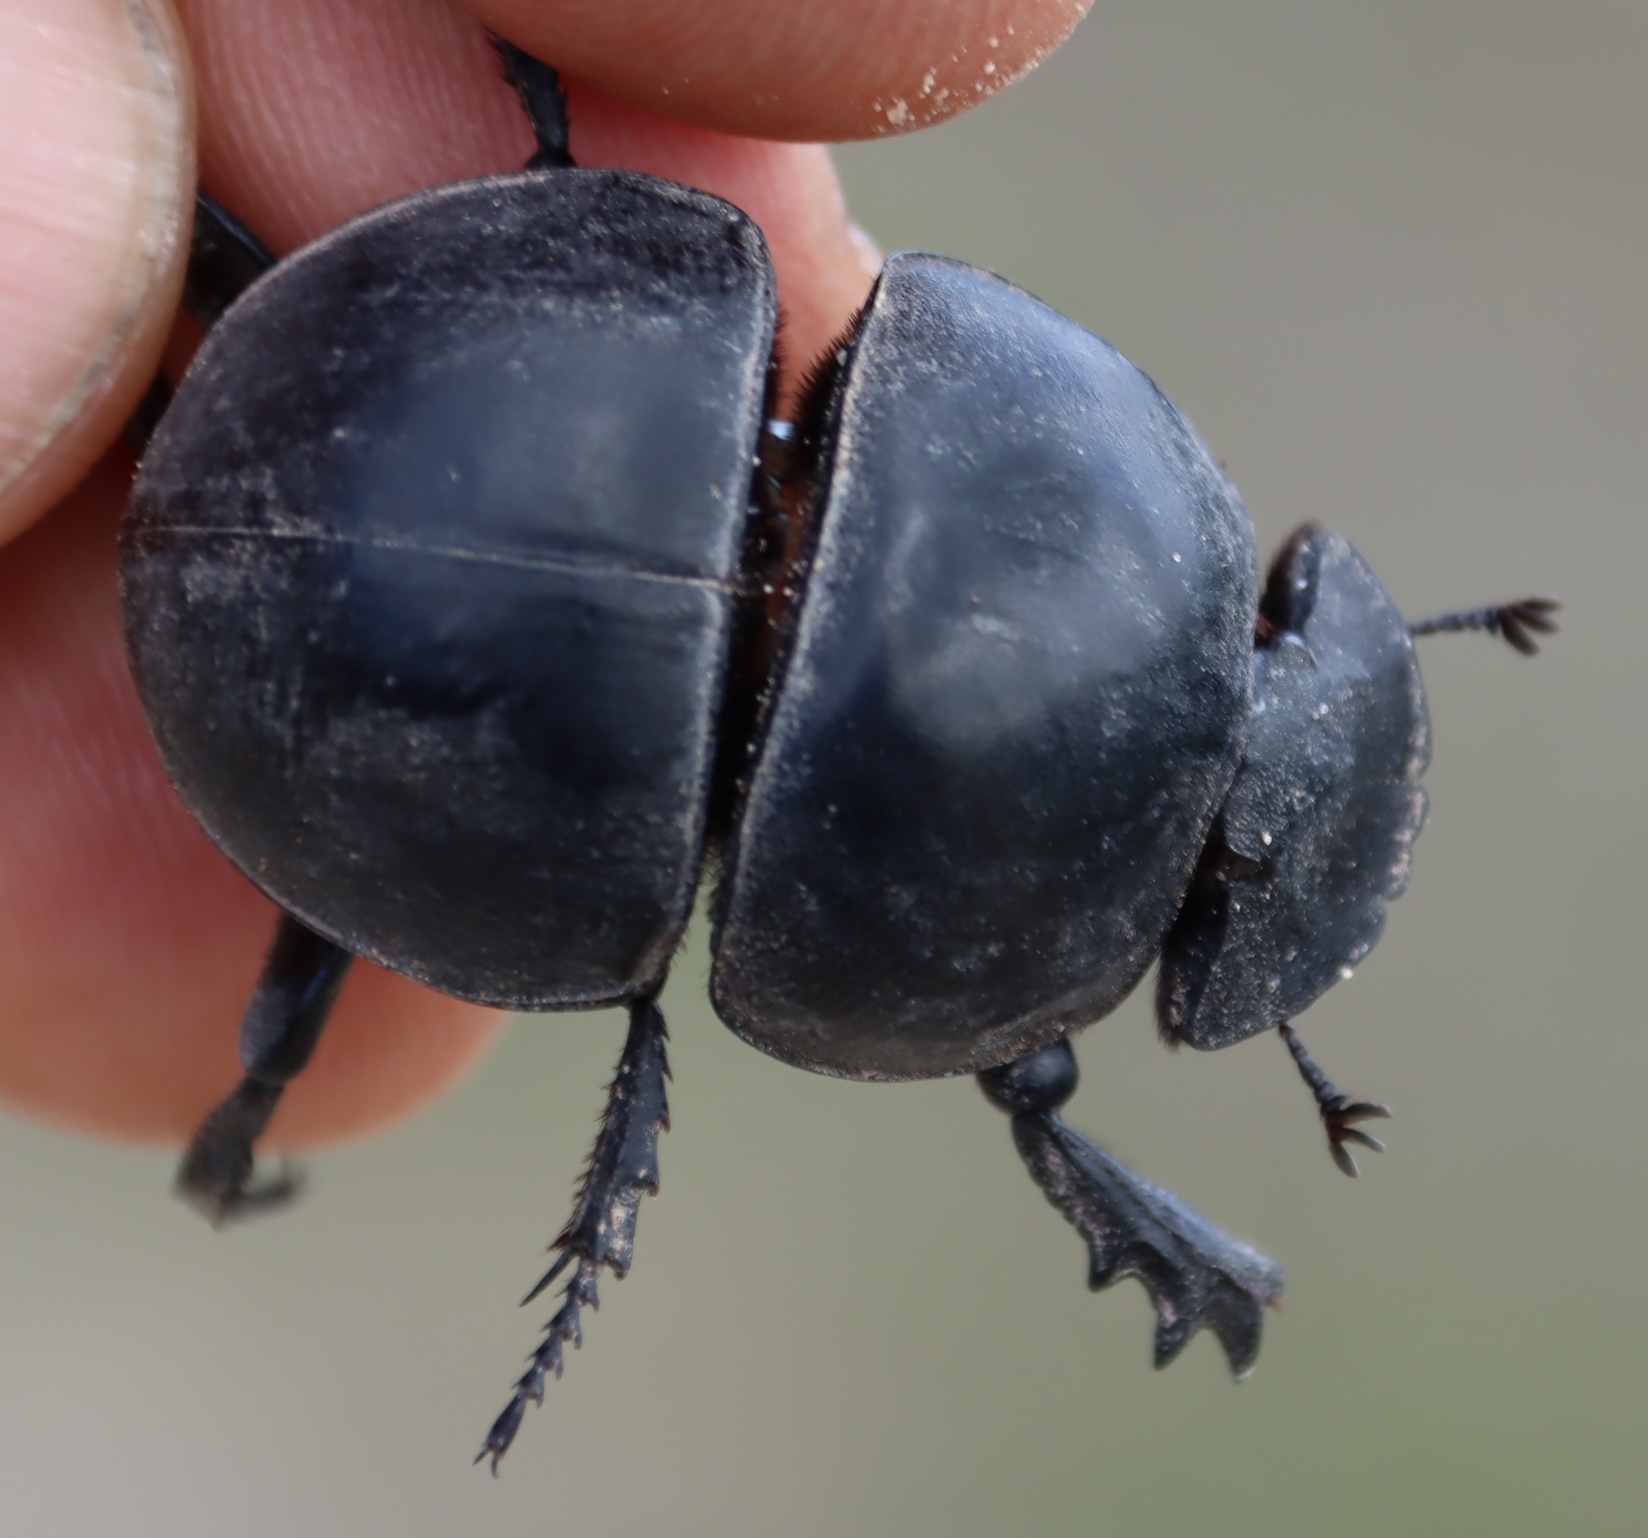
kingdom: Animalia
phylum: Arthropoda
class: Insecta
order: Coleoptera
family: Scarabaeidae
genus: Circellium
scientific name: Circellium bacchus
